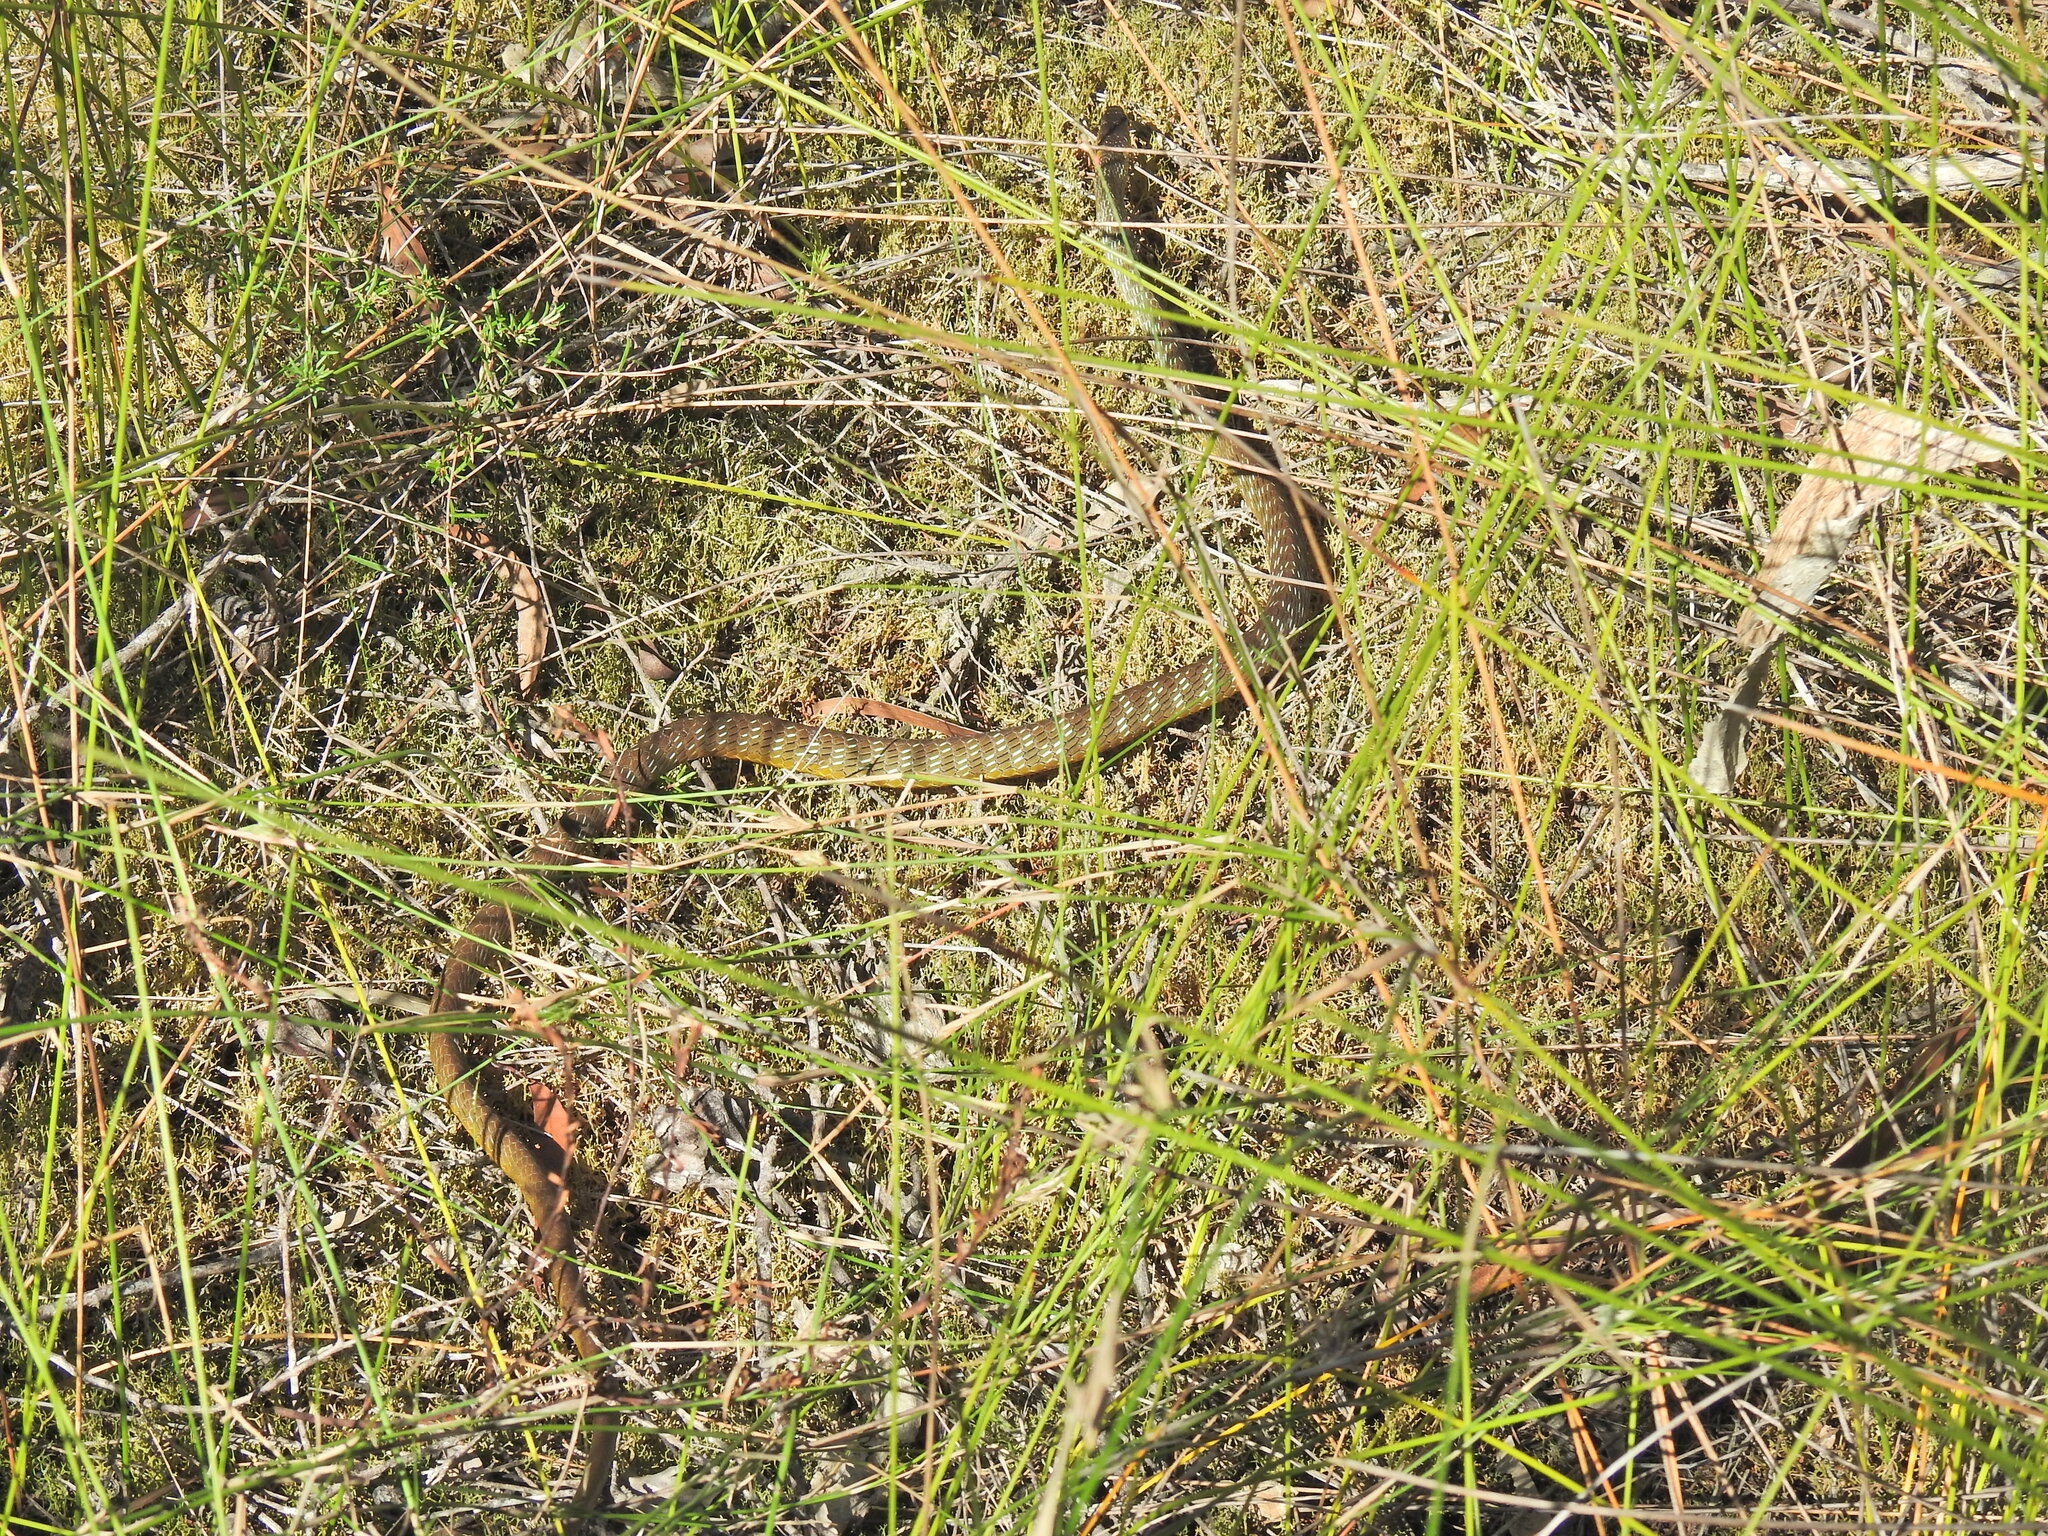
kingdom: Animalia
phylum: Chordata
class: Squamata
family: Colubridae
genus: Dendrelaphis
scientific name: Dendrelaphis punctulatus
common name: Common tree snake
